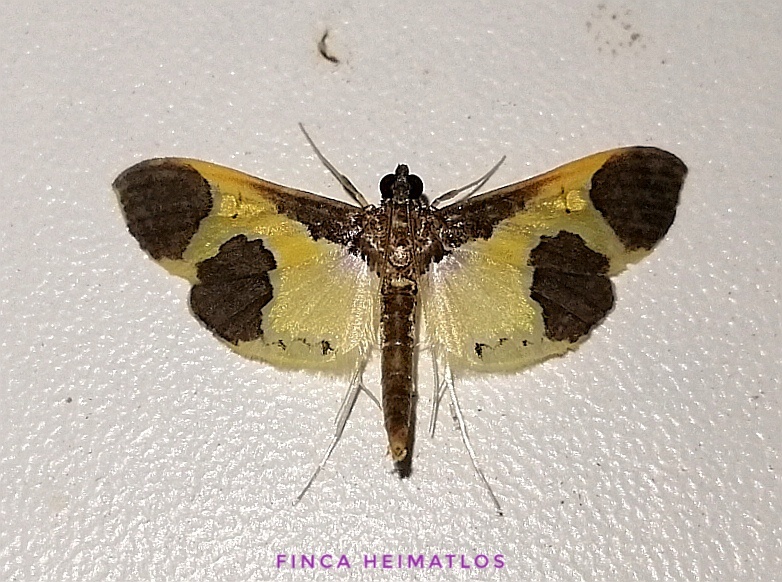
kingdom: Animalia
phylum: Arthropoda
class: Insecta
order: Lepidoptera
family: Crambidae
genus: Syllepis
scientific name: Syllepis marialis
